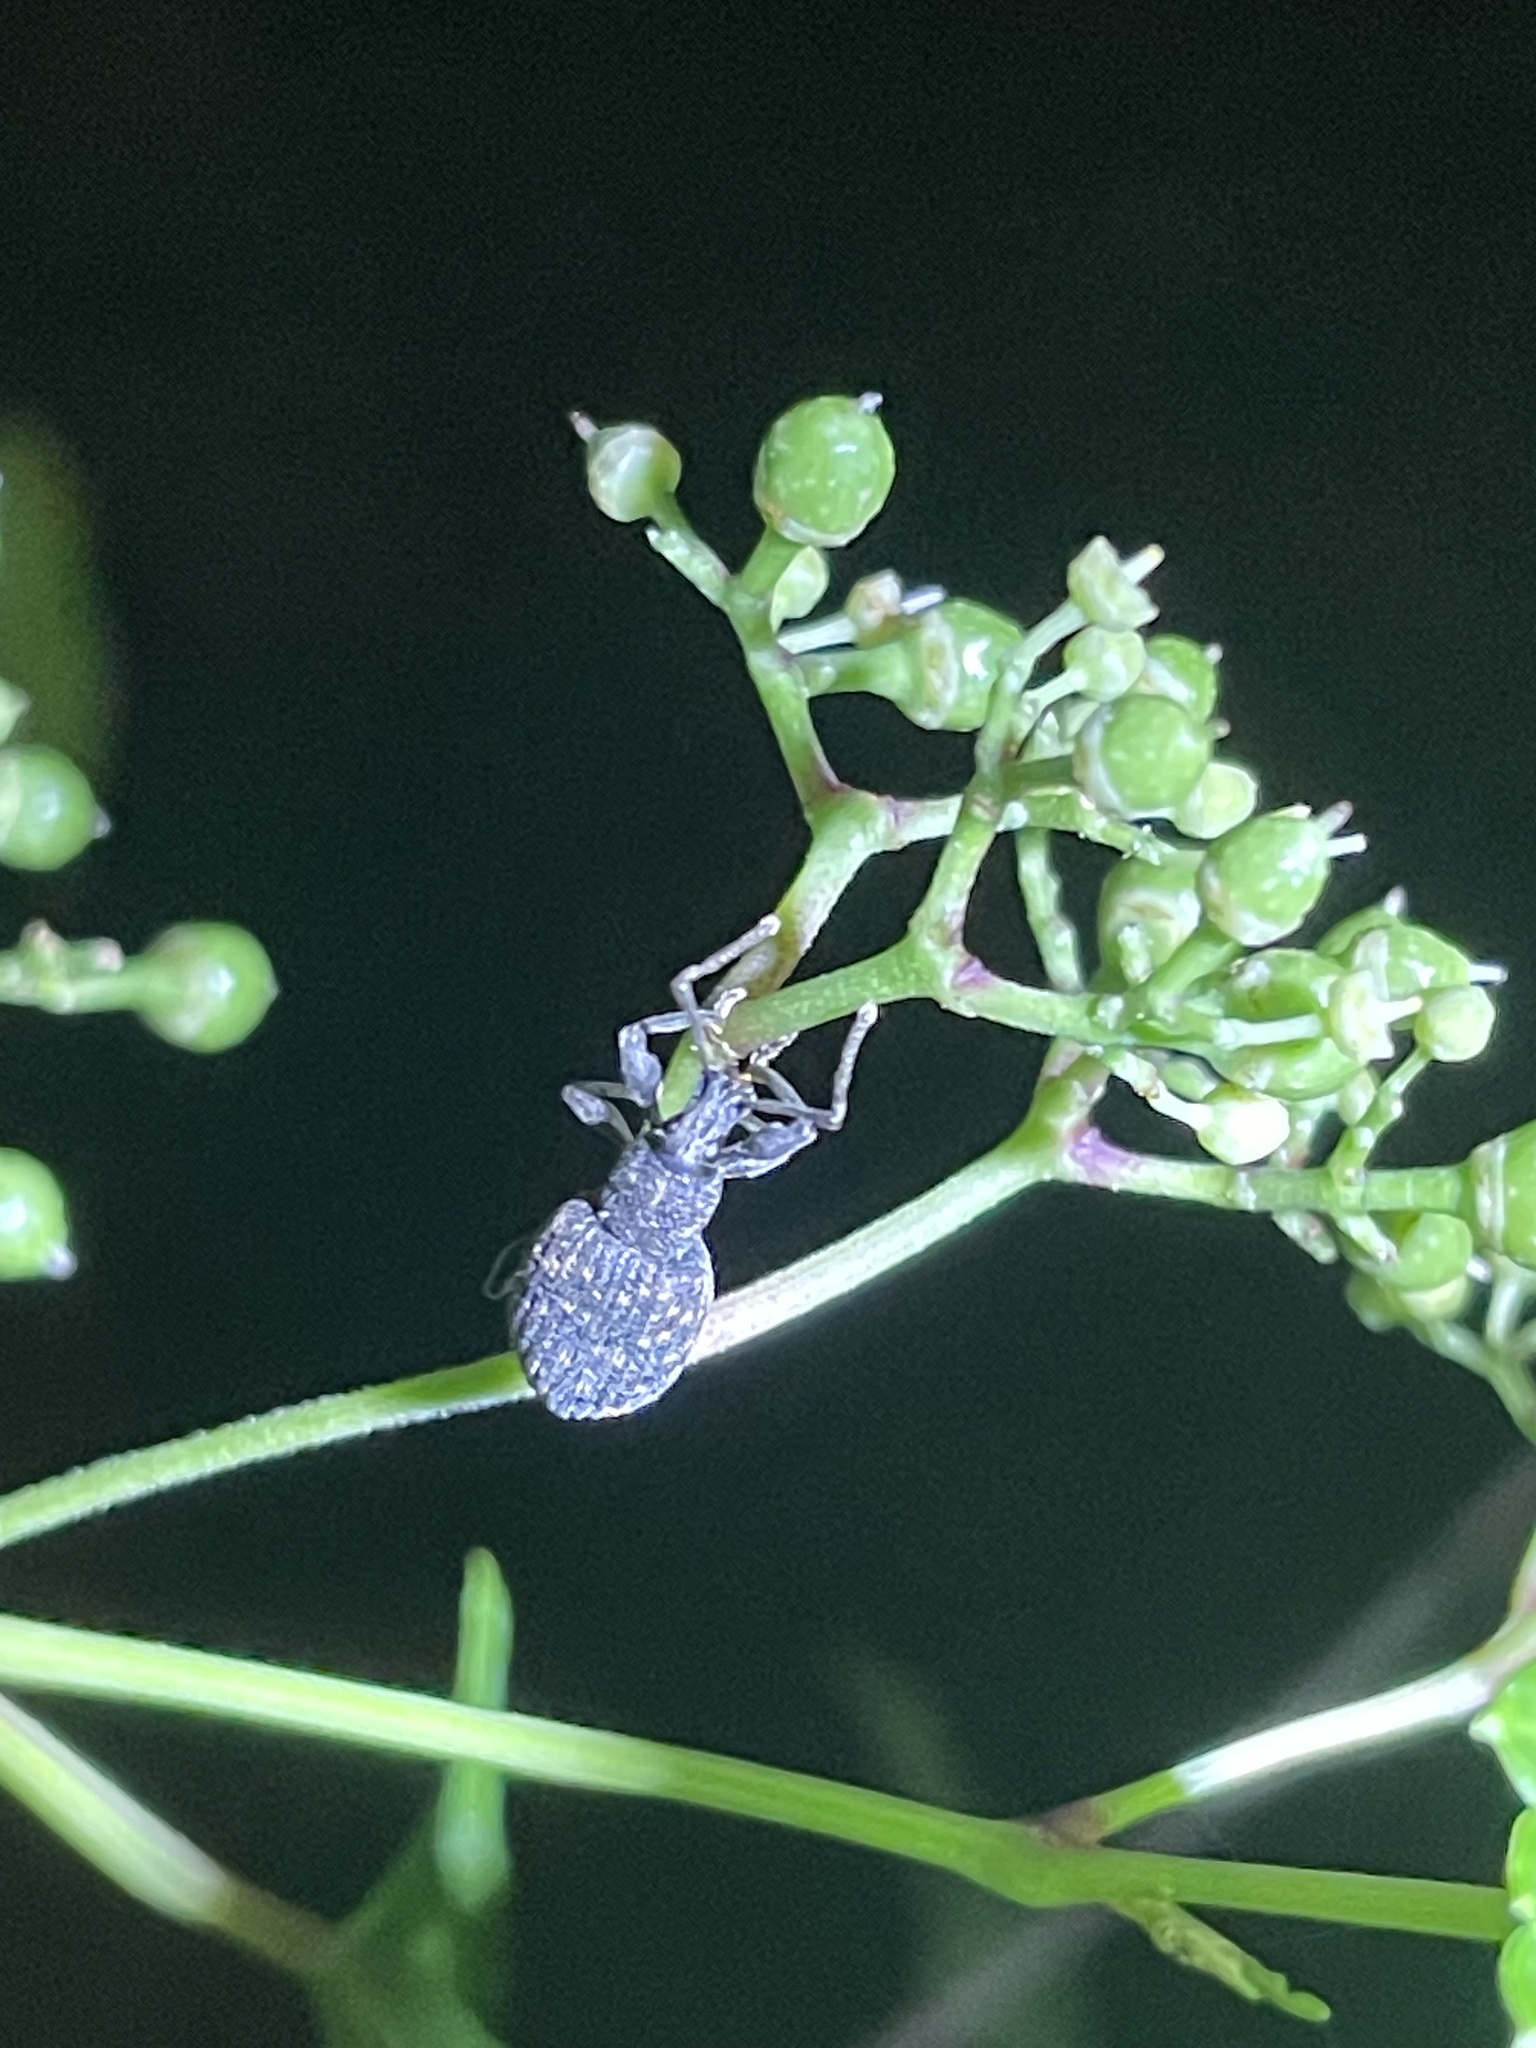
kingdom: Animalia
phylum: Arthropoda
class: Insecta
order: Coleoptera
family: Curculionidae
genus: Otiorhynchus
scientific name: Otiorhynchus sulcatus
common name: Black vine weevil
